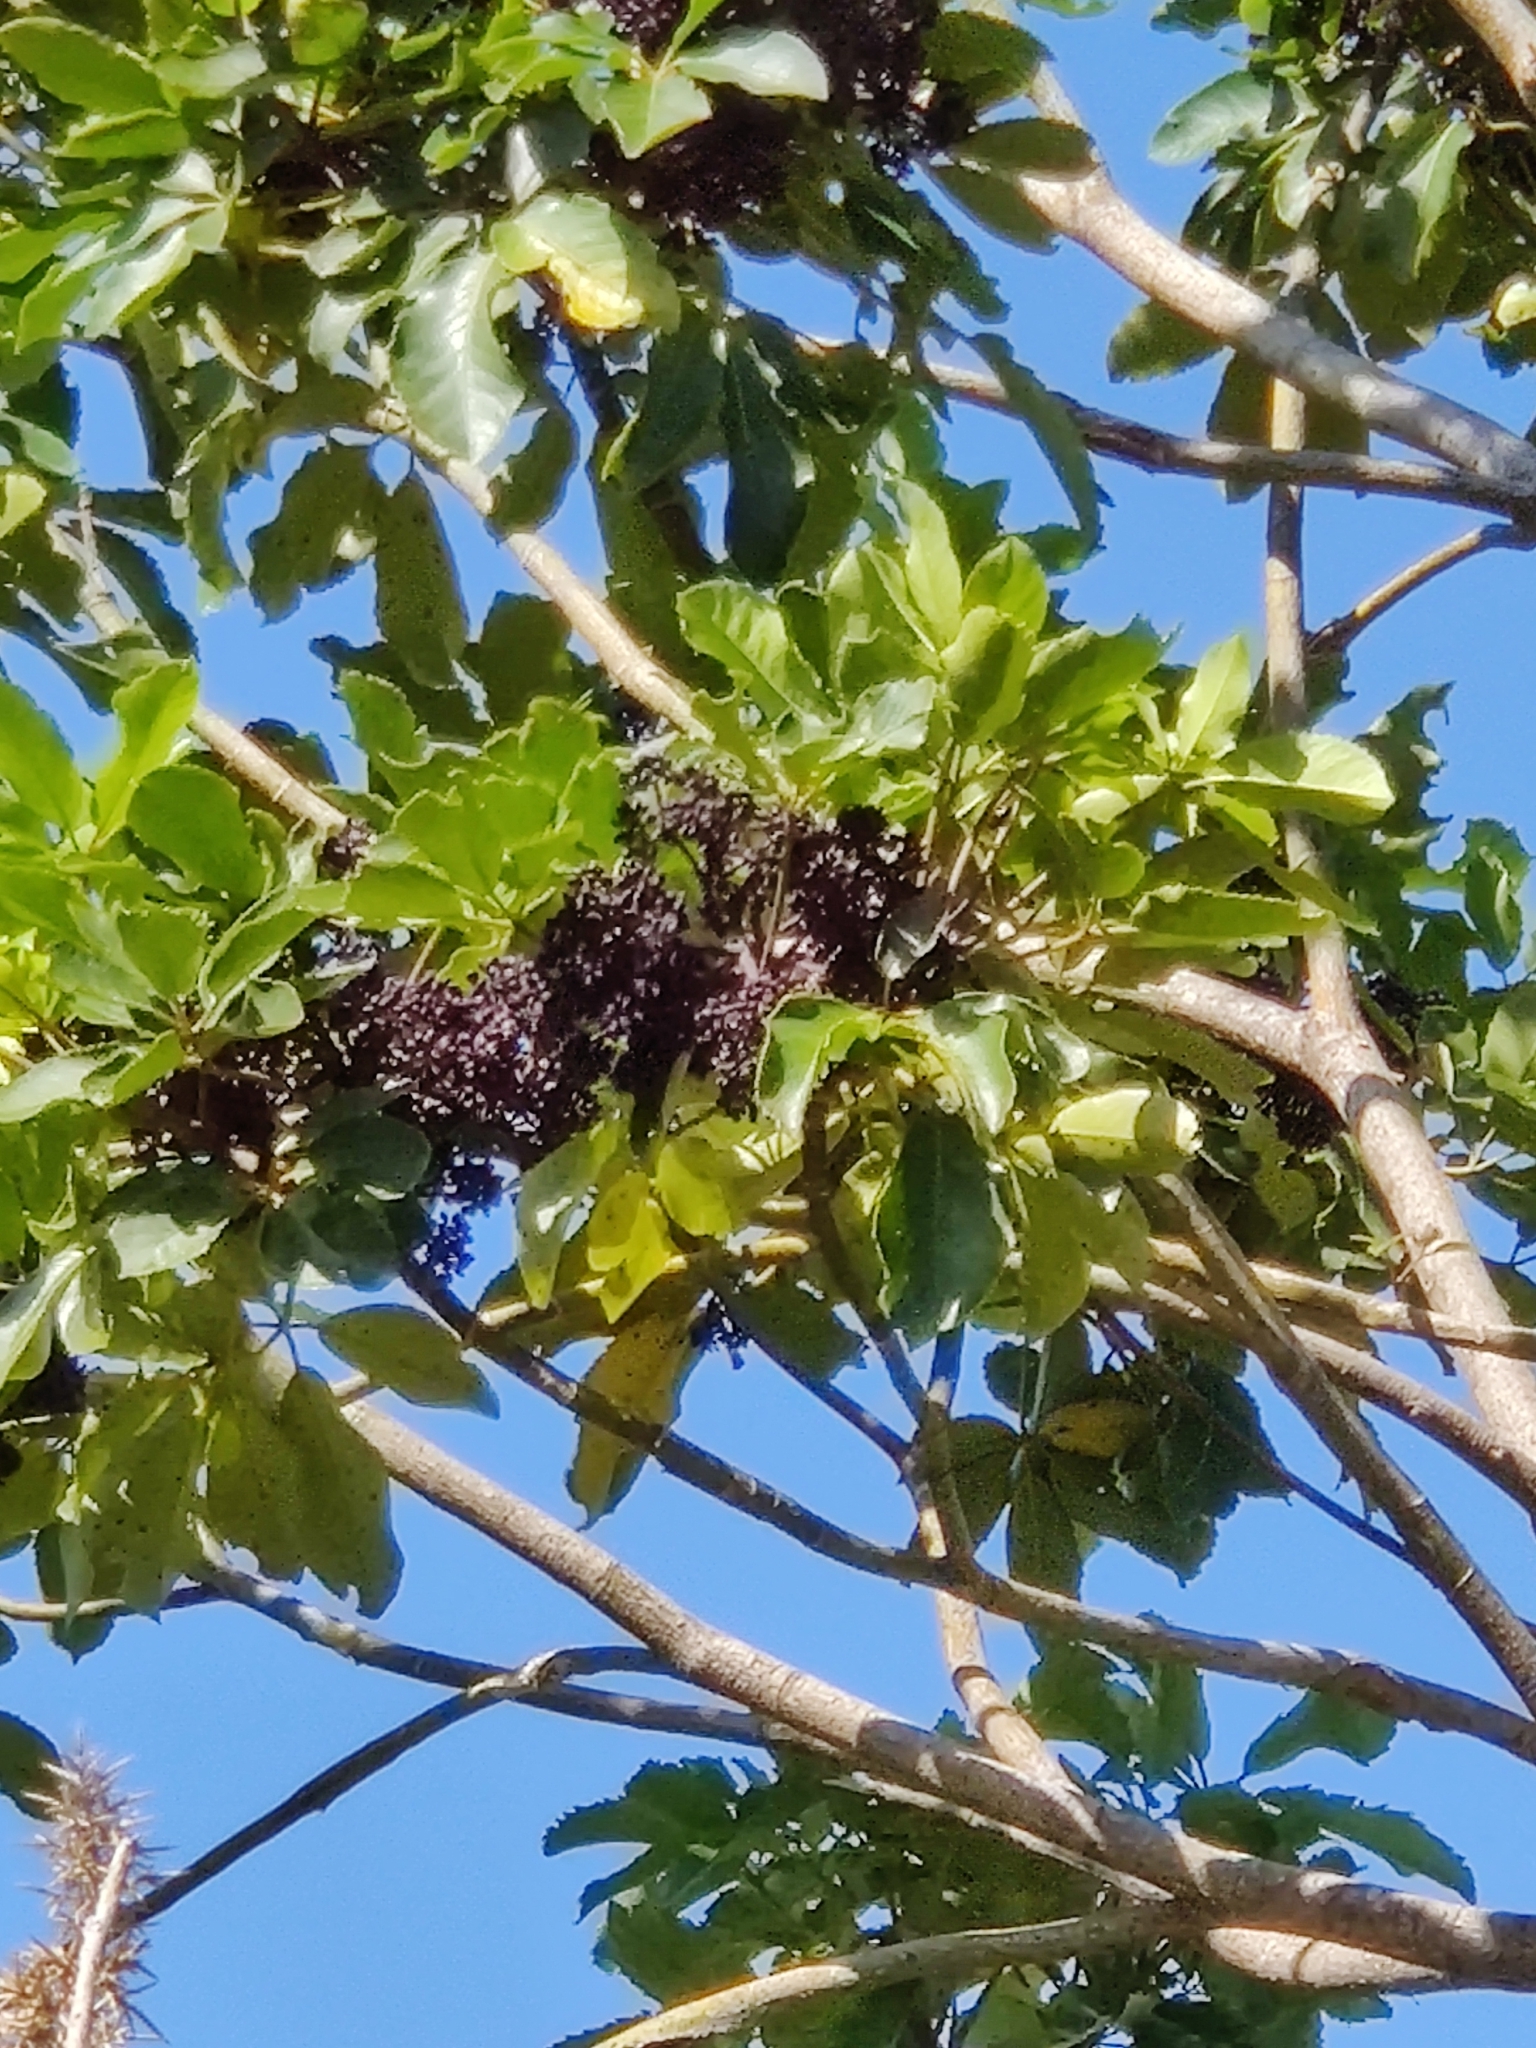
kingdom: Plantae
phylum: Tracheophyta
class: Magnoliopsida
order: Apiales
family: Araliaceae
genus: Neopanax
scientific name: Neopanax arboreus
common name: Five-fingers
